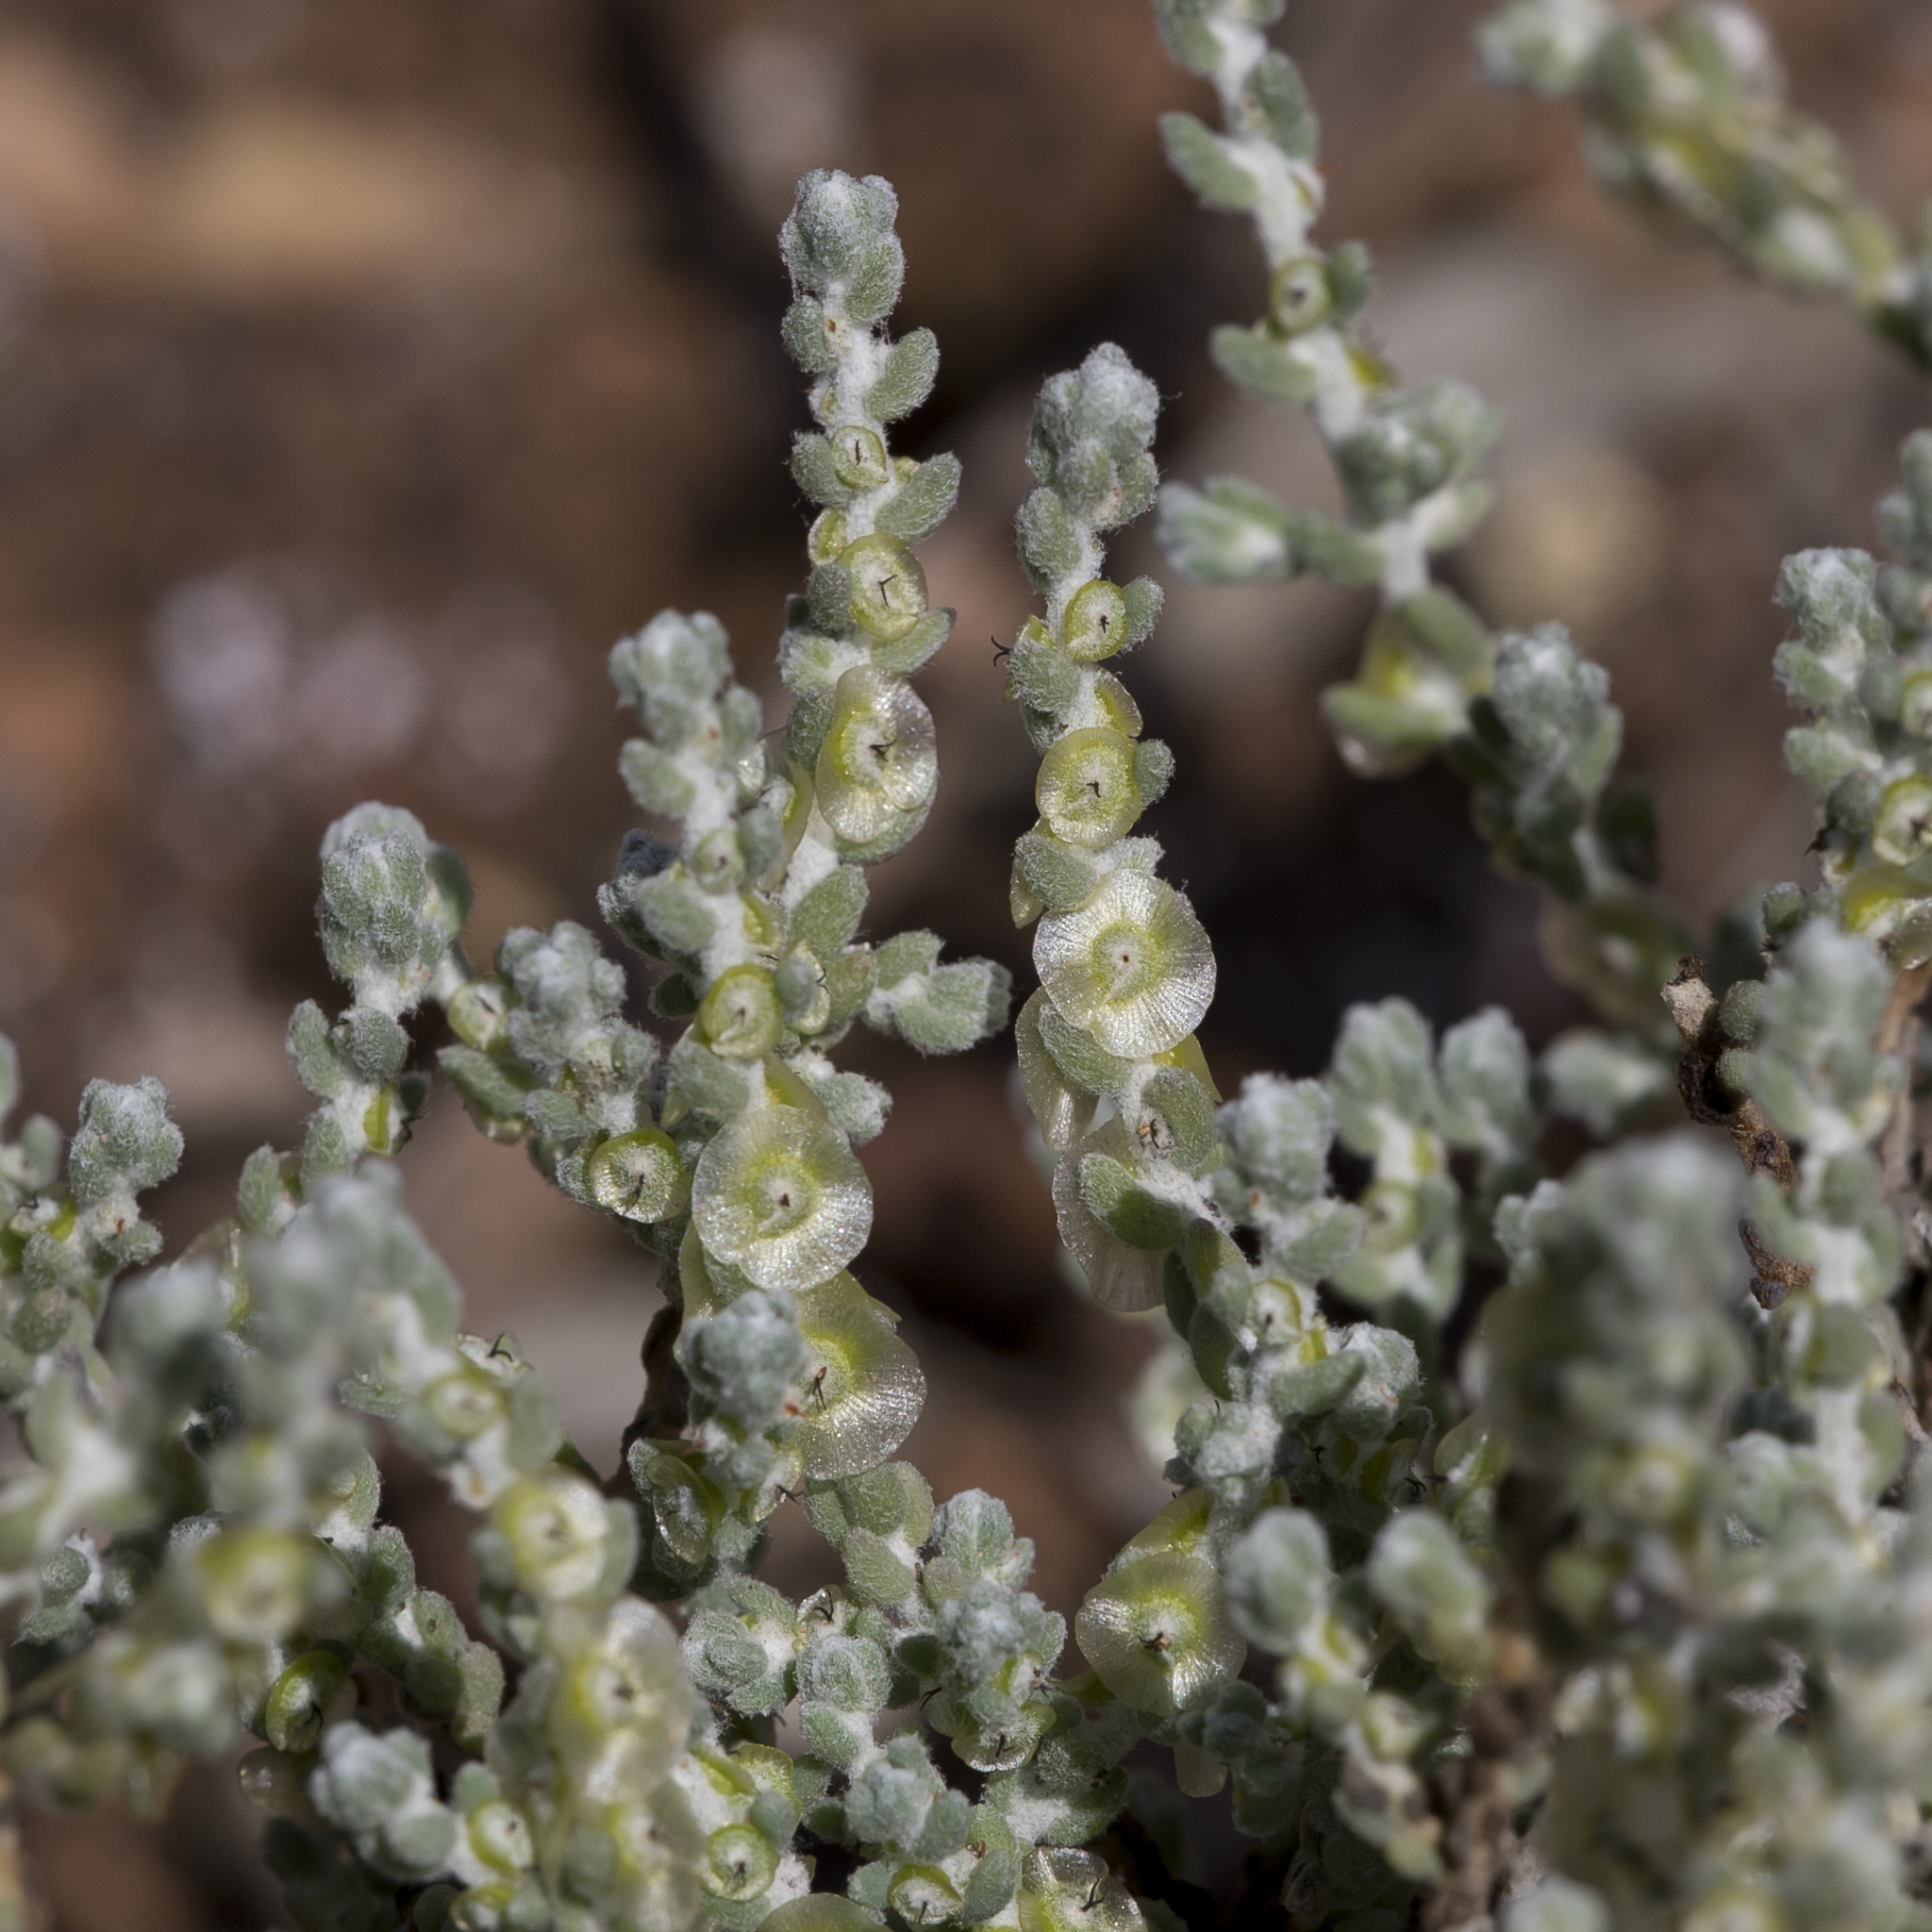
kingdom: Plantae
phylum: Tracheophyta
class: Magnoliopsida
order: Caryophyllales
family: Amaranthaceae
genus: Maireana
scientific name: Maireana radiata
